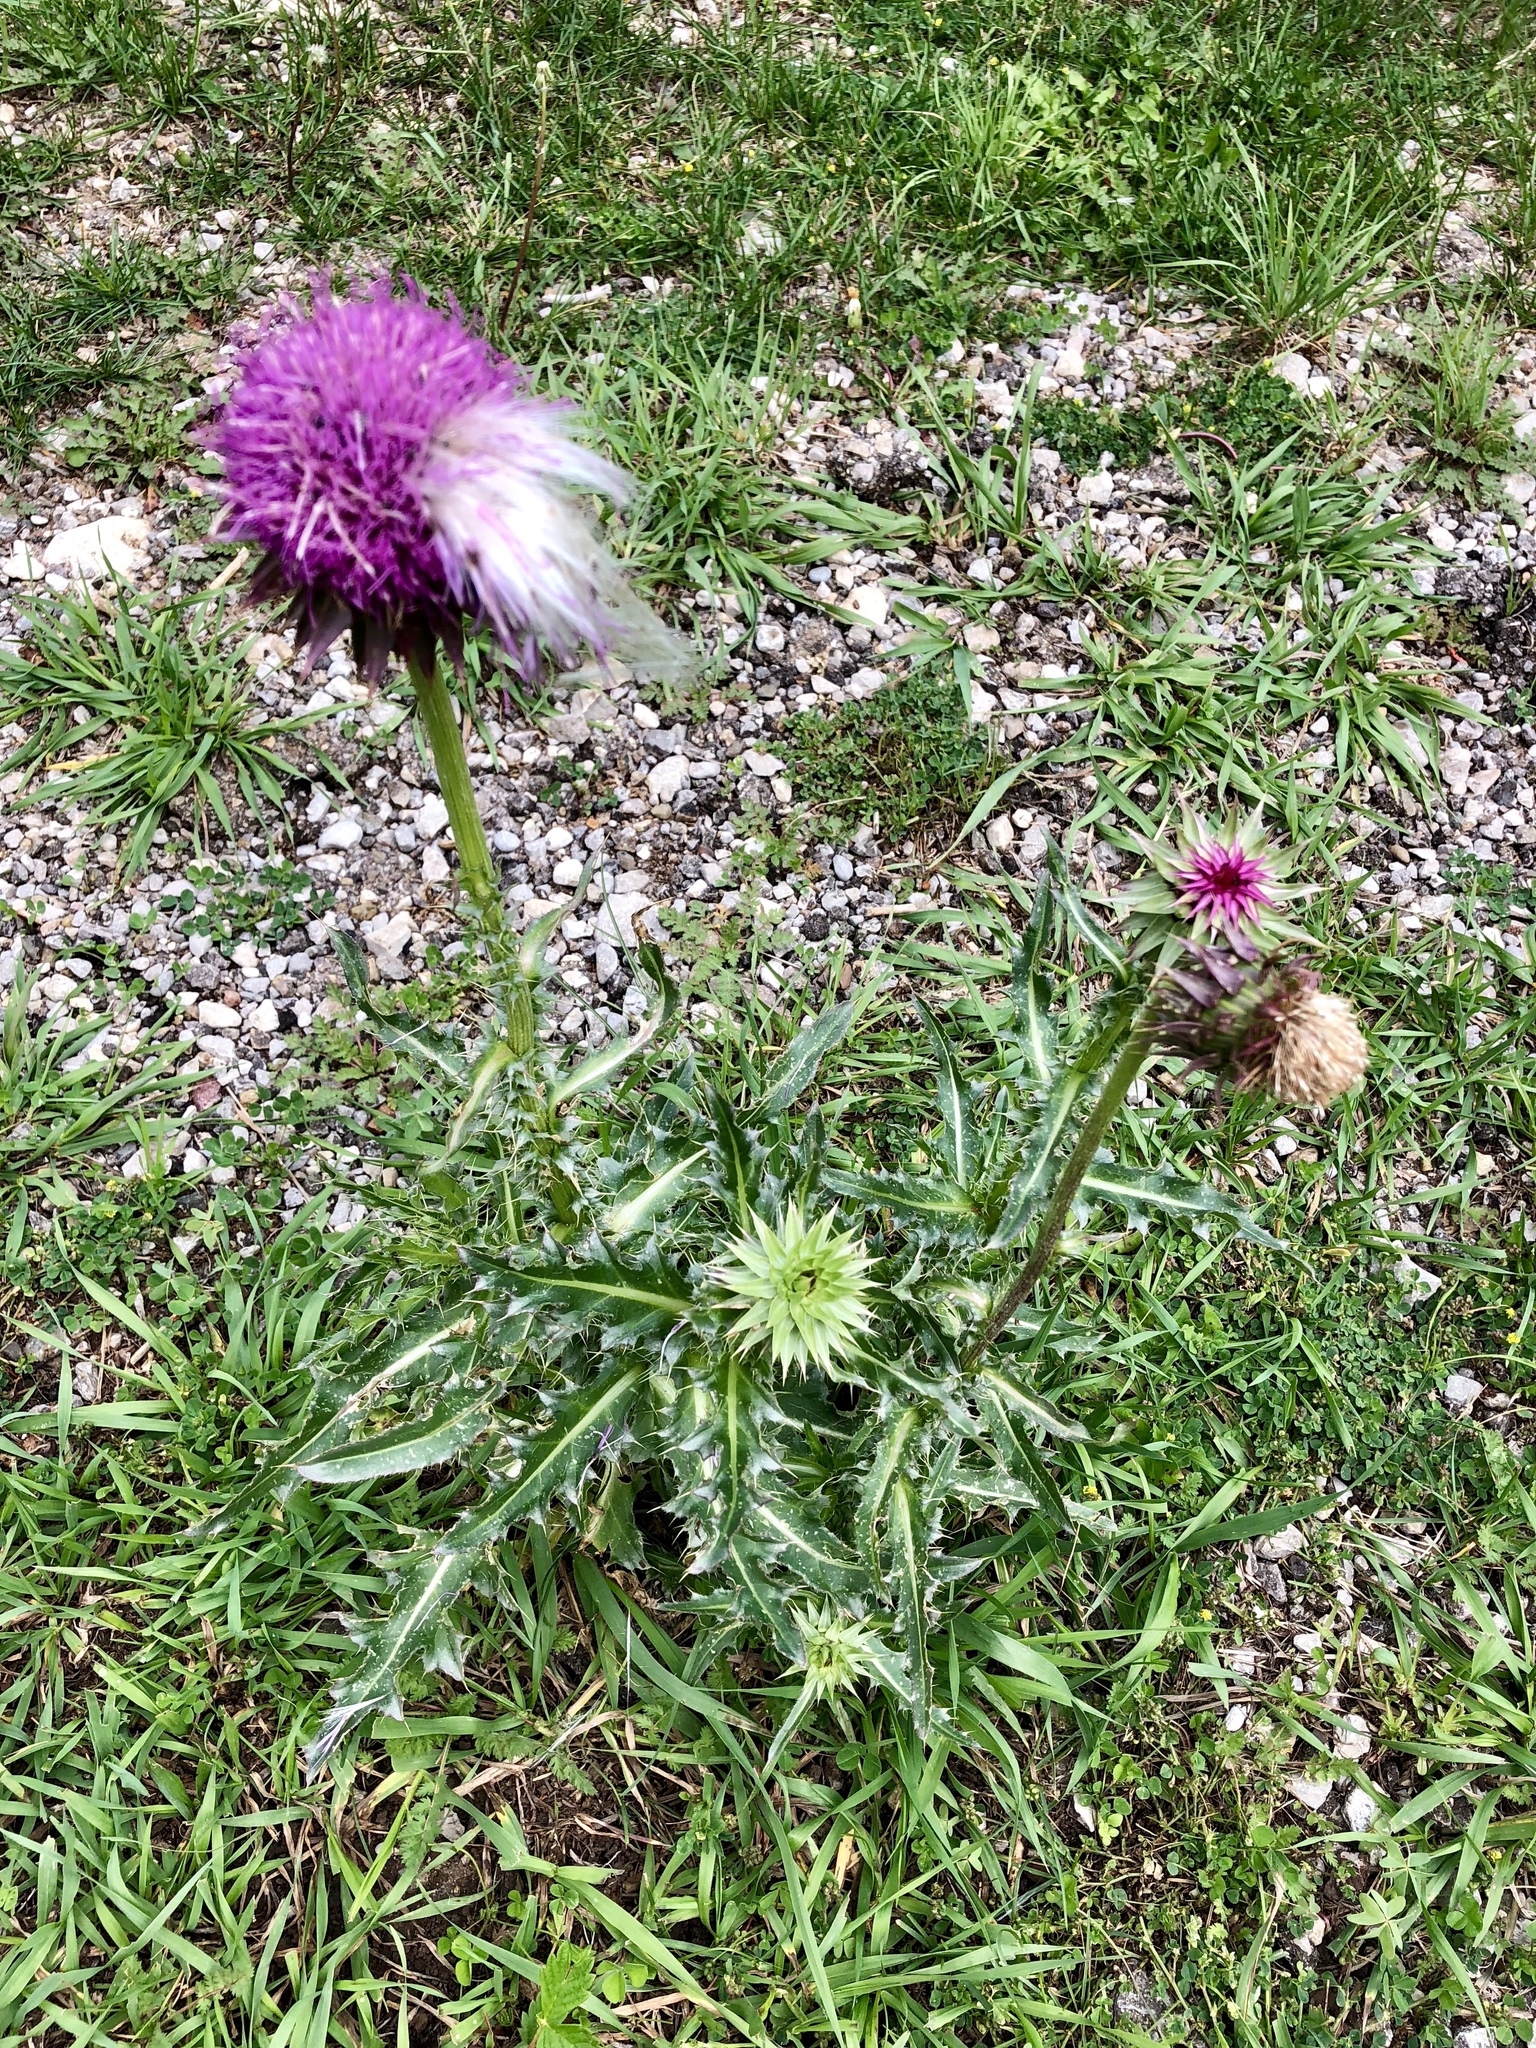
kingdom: Plantae
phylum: Tracheophyta
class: Magnoliopsida
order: Asterales
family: Asteraceae
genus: Carduus
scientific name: Carduus nutans
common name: Musk thistle
